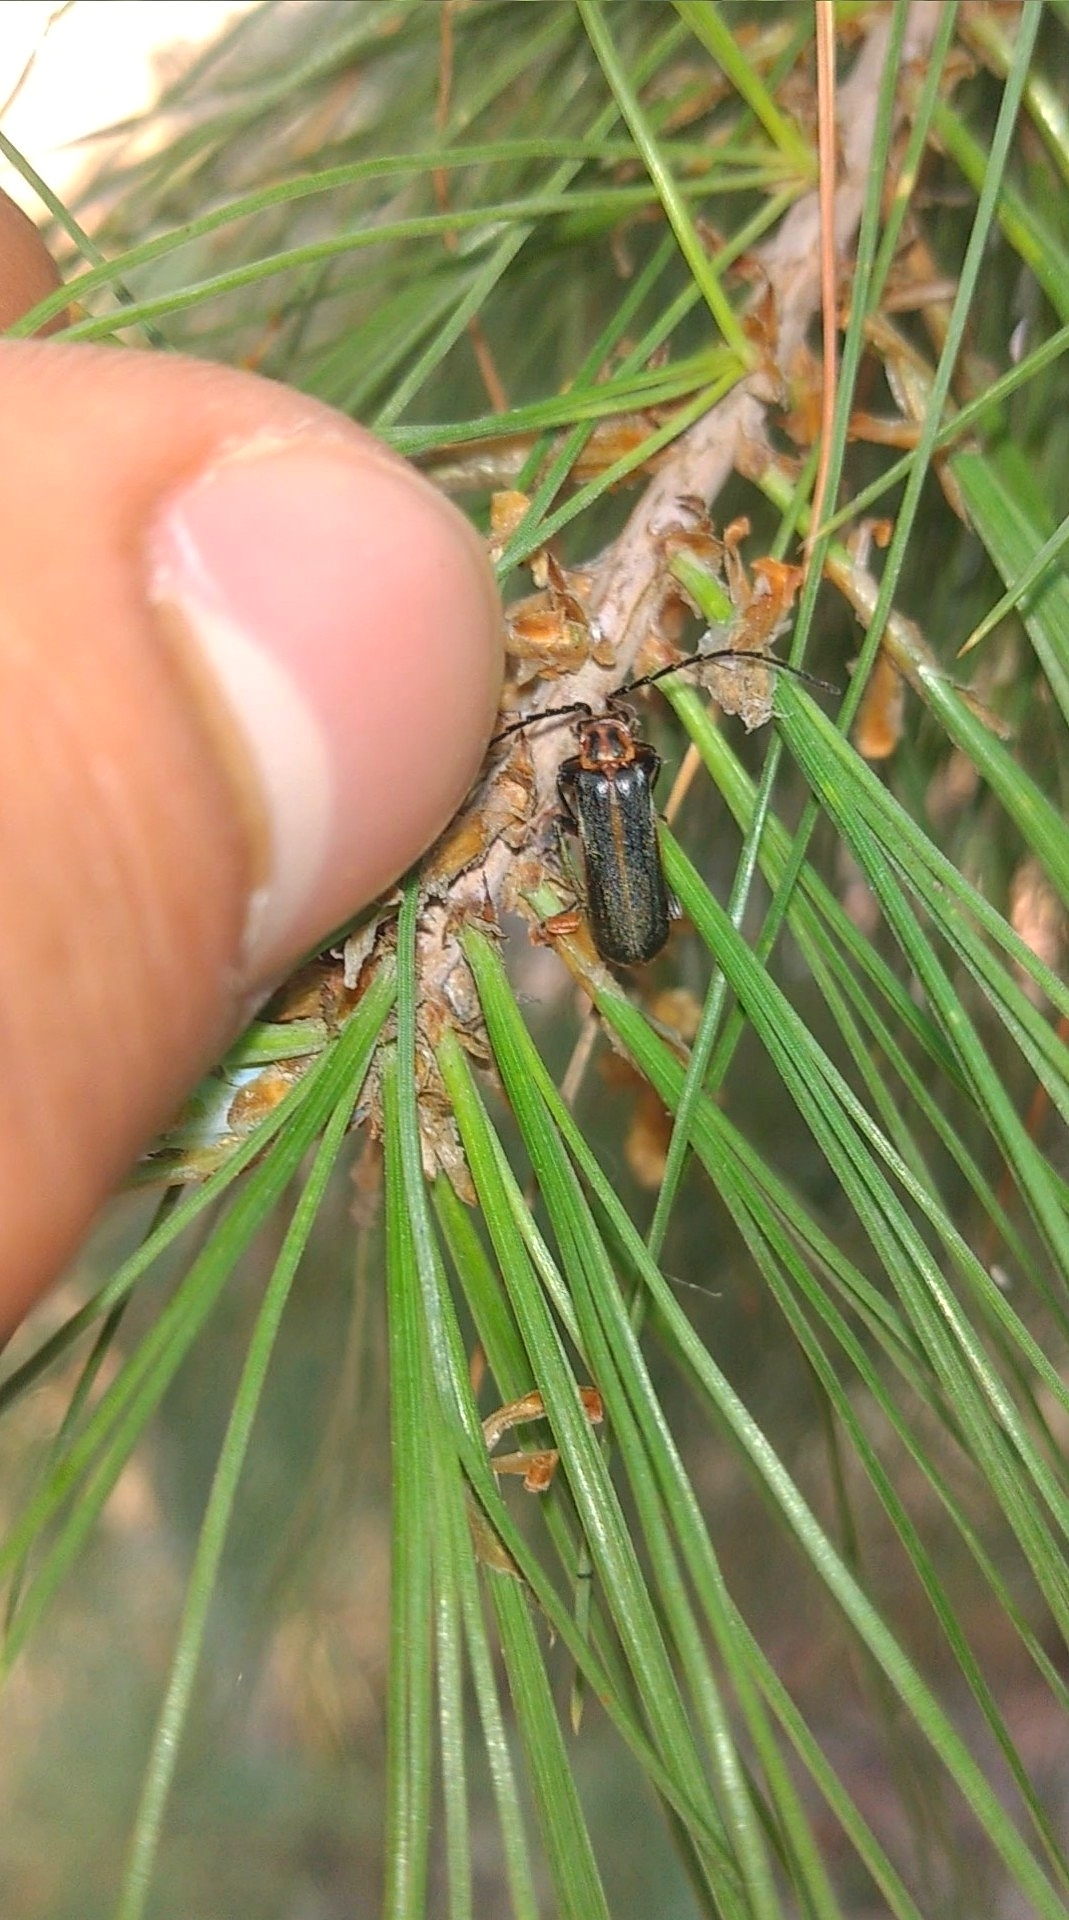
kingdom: Animalia
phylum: Arthropoda
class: Insecta
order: Coleoptera
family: Cantharidae
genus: Polemius
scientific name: Polemius
